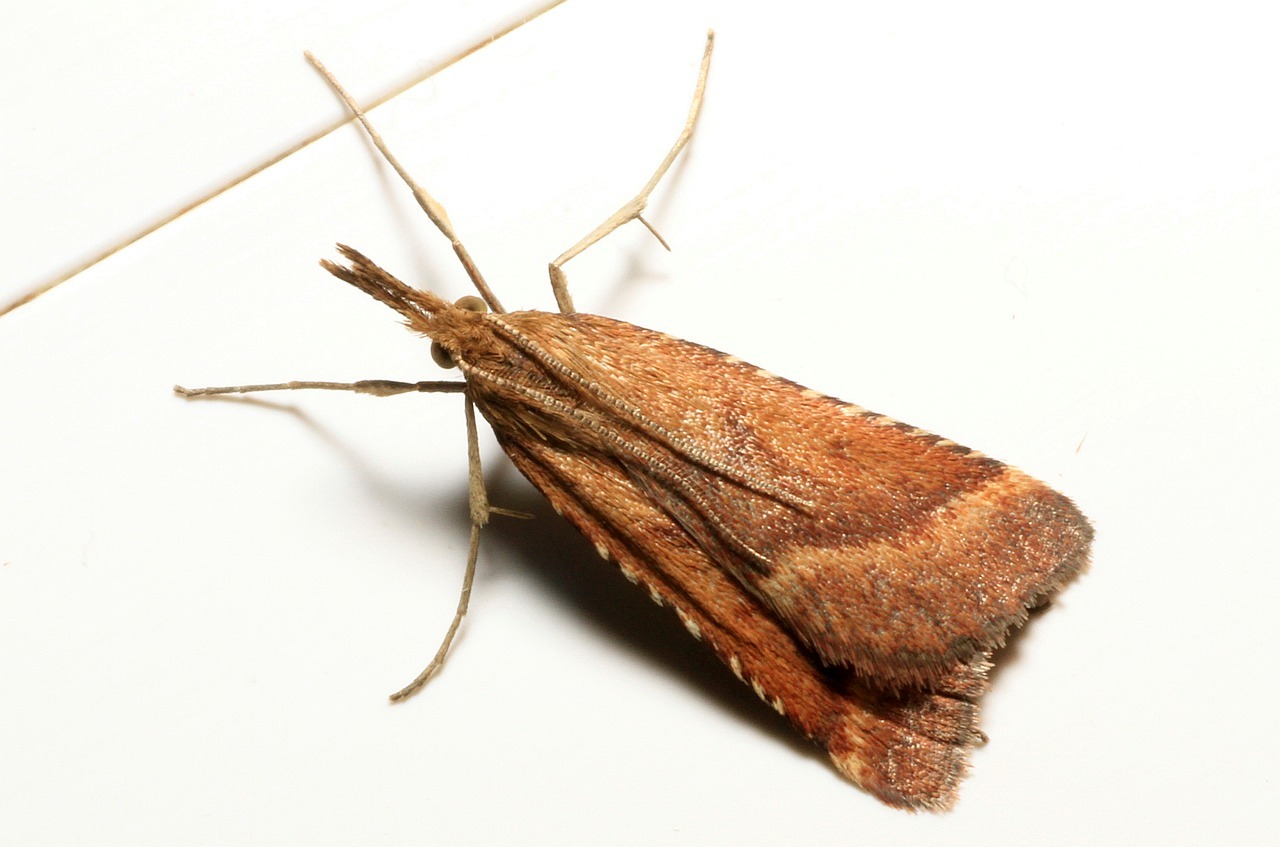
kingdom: Animalia
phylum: Arthropoda
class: Insecta
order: Lepidoptera
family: Pyralidae
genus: Synaphe
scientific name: Synaphe punctalis
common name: Long-legged tabby
